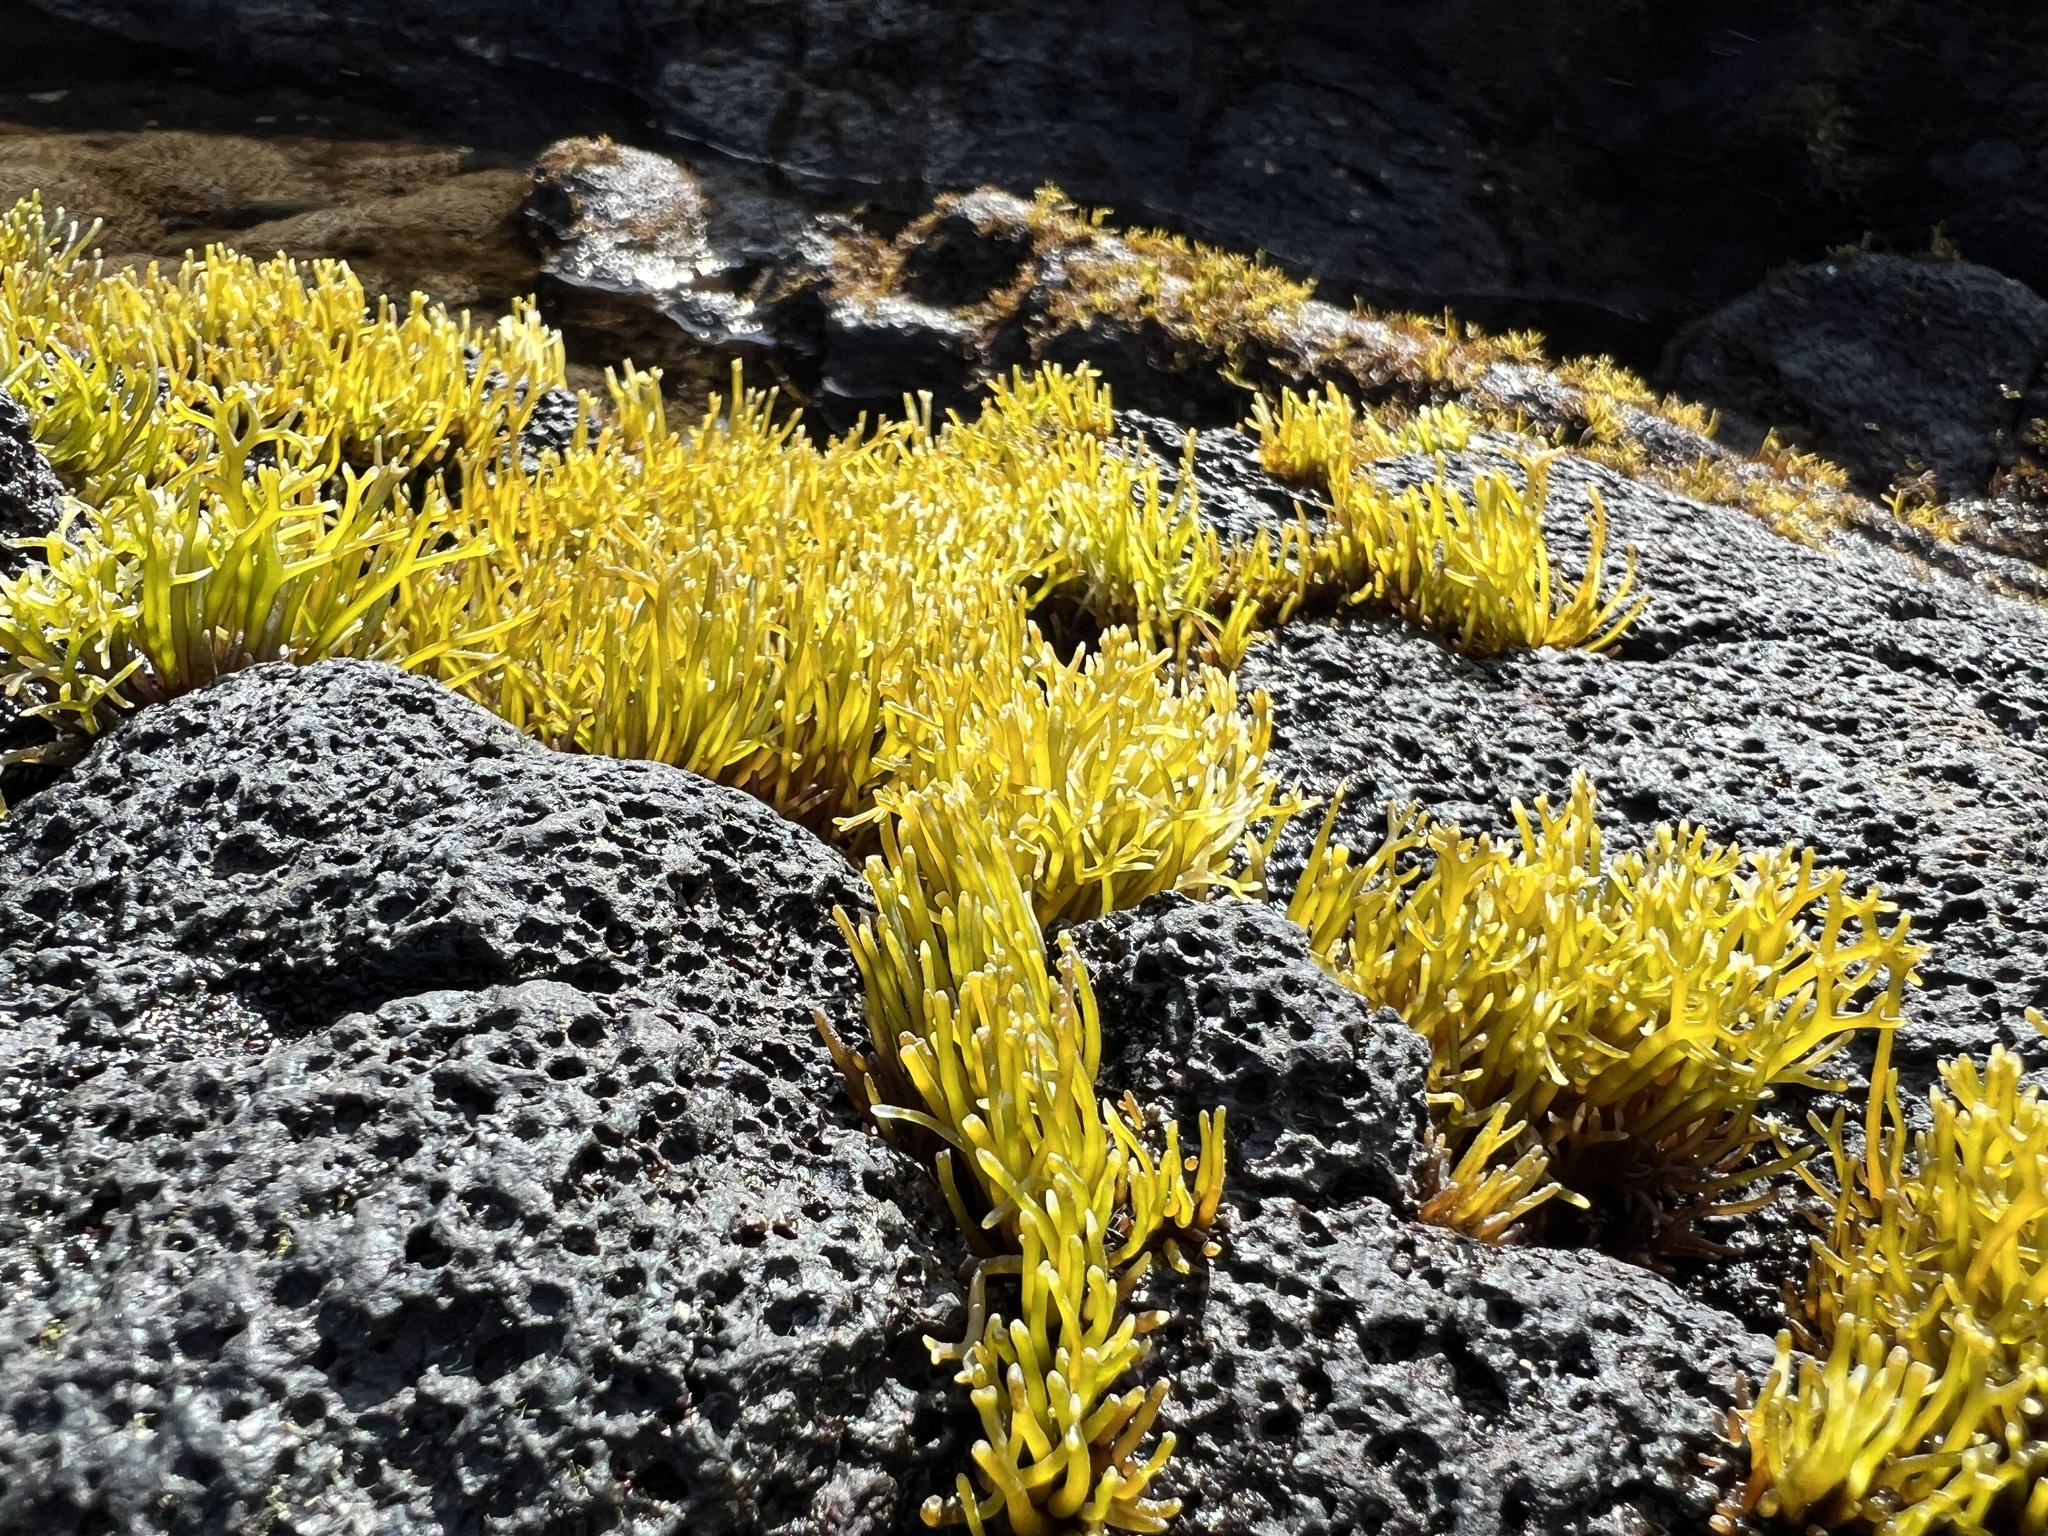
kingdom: Plantae
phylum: Rhodophyta
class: Florideophyceae
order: Gigartinales
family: Phyllophoraceae
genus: Gymnogongrus
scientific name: Gymnogongrus durvillei
